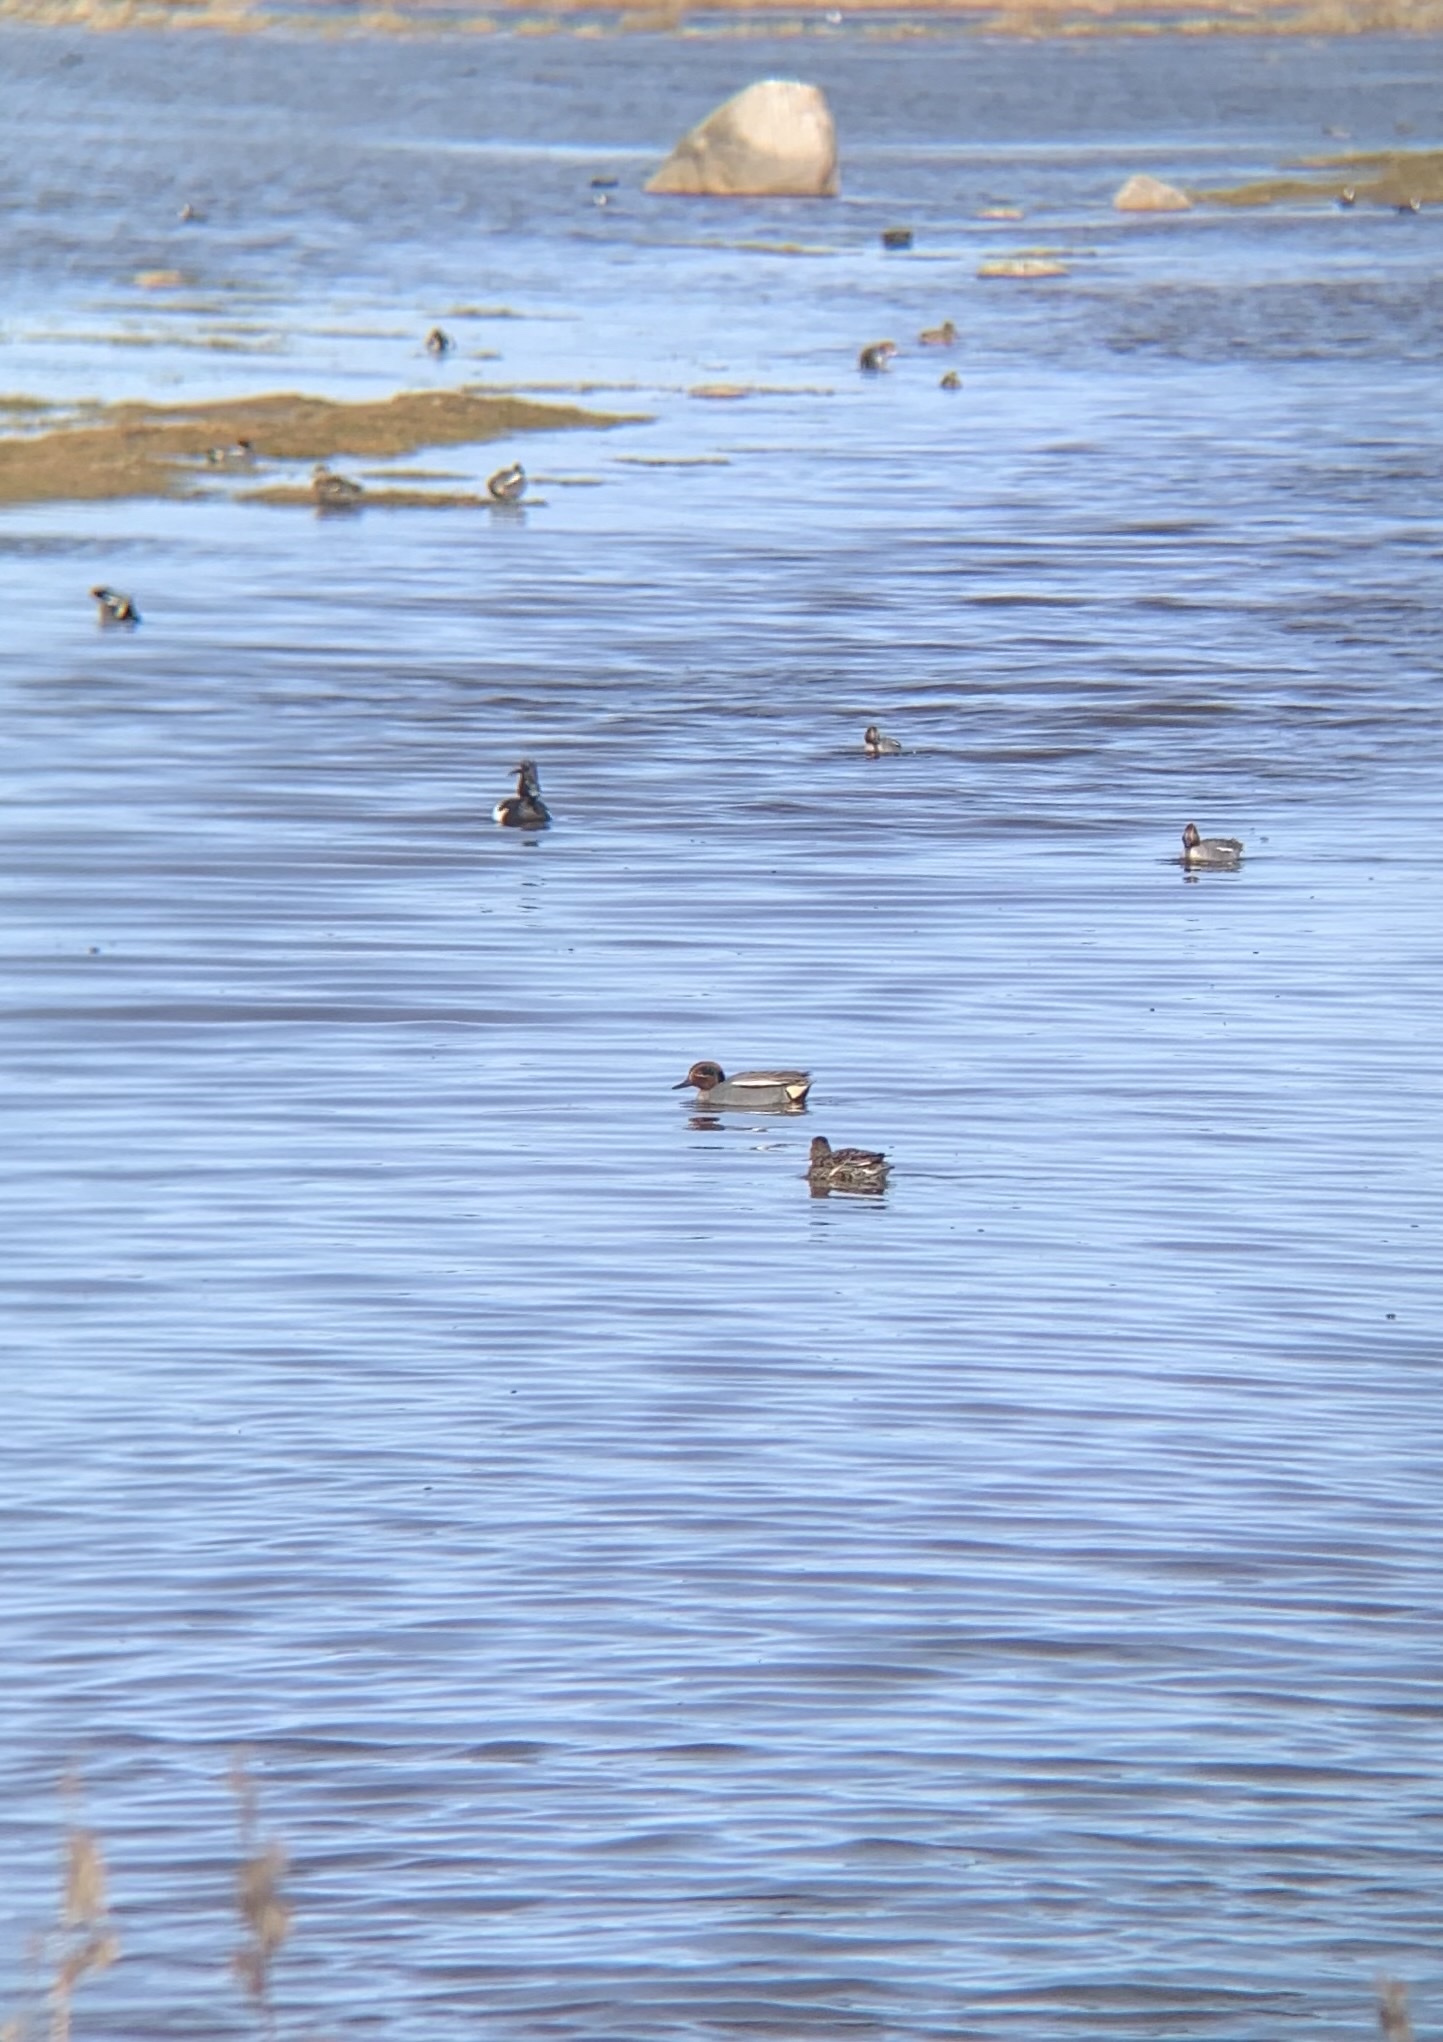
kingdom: Animalia
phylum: Chordata
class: Aves
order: Anseriformes
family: Anatidae
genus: Anas
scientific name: Anas crecca
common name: Eurasian teal
